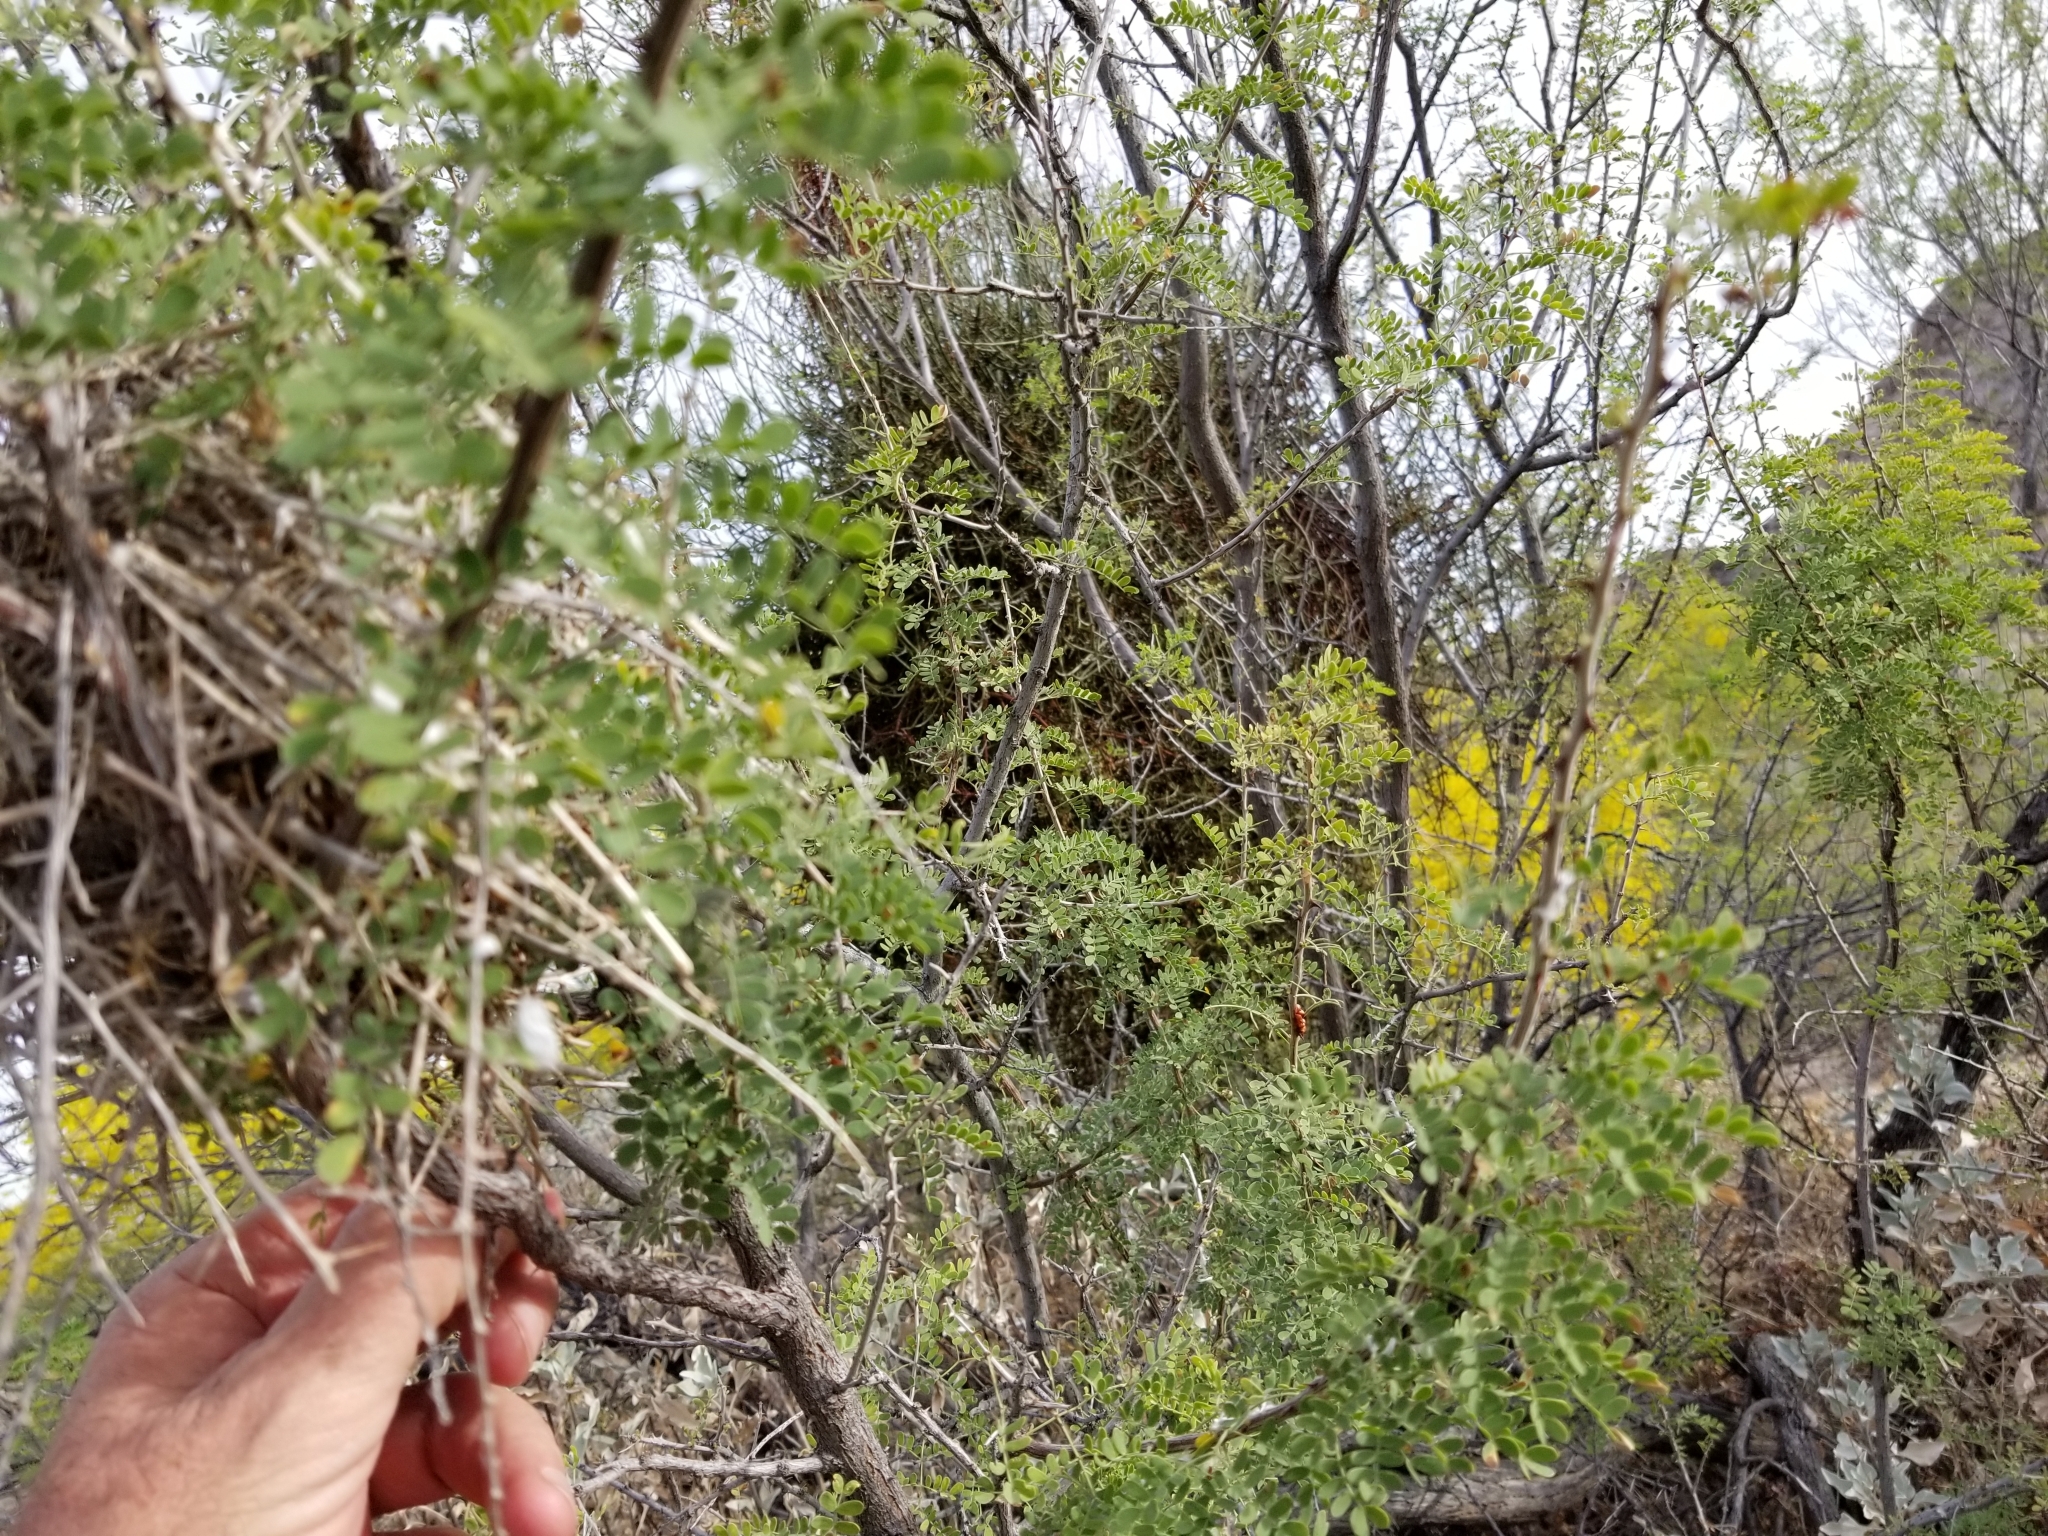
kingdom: Plantae
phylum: Tracheophyta
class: Magnoliopsida
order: Fabales
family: Fabaceae
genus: Senegalia
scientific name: Senegalia greggii
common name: Texas-mimosa
